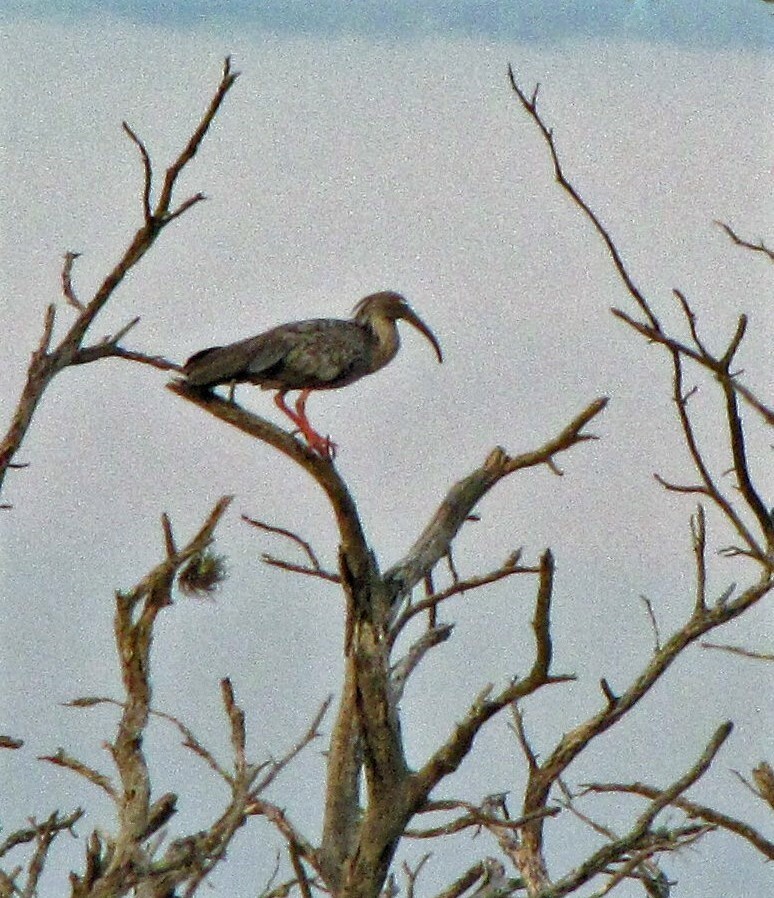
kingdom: Animalia
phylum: Chordata
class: Aves
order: Pelecaniformes
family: Threskiornithidae
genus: Theristicus
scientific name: Theristicus caerulescens
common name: Plumbeous ibis
